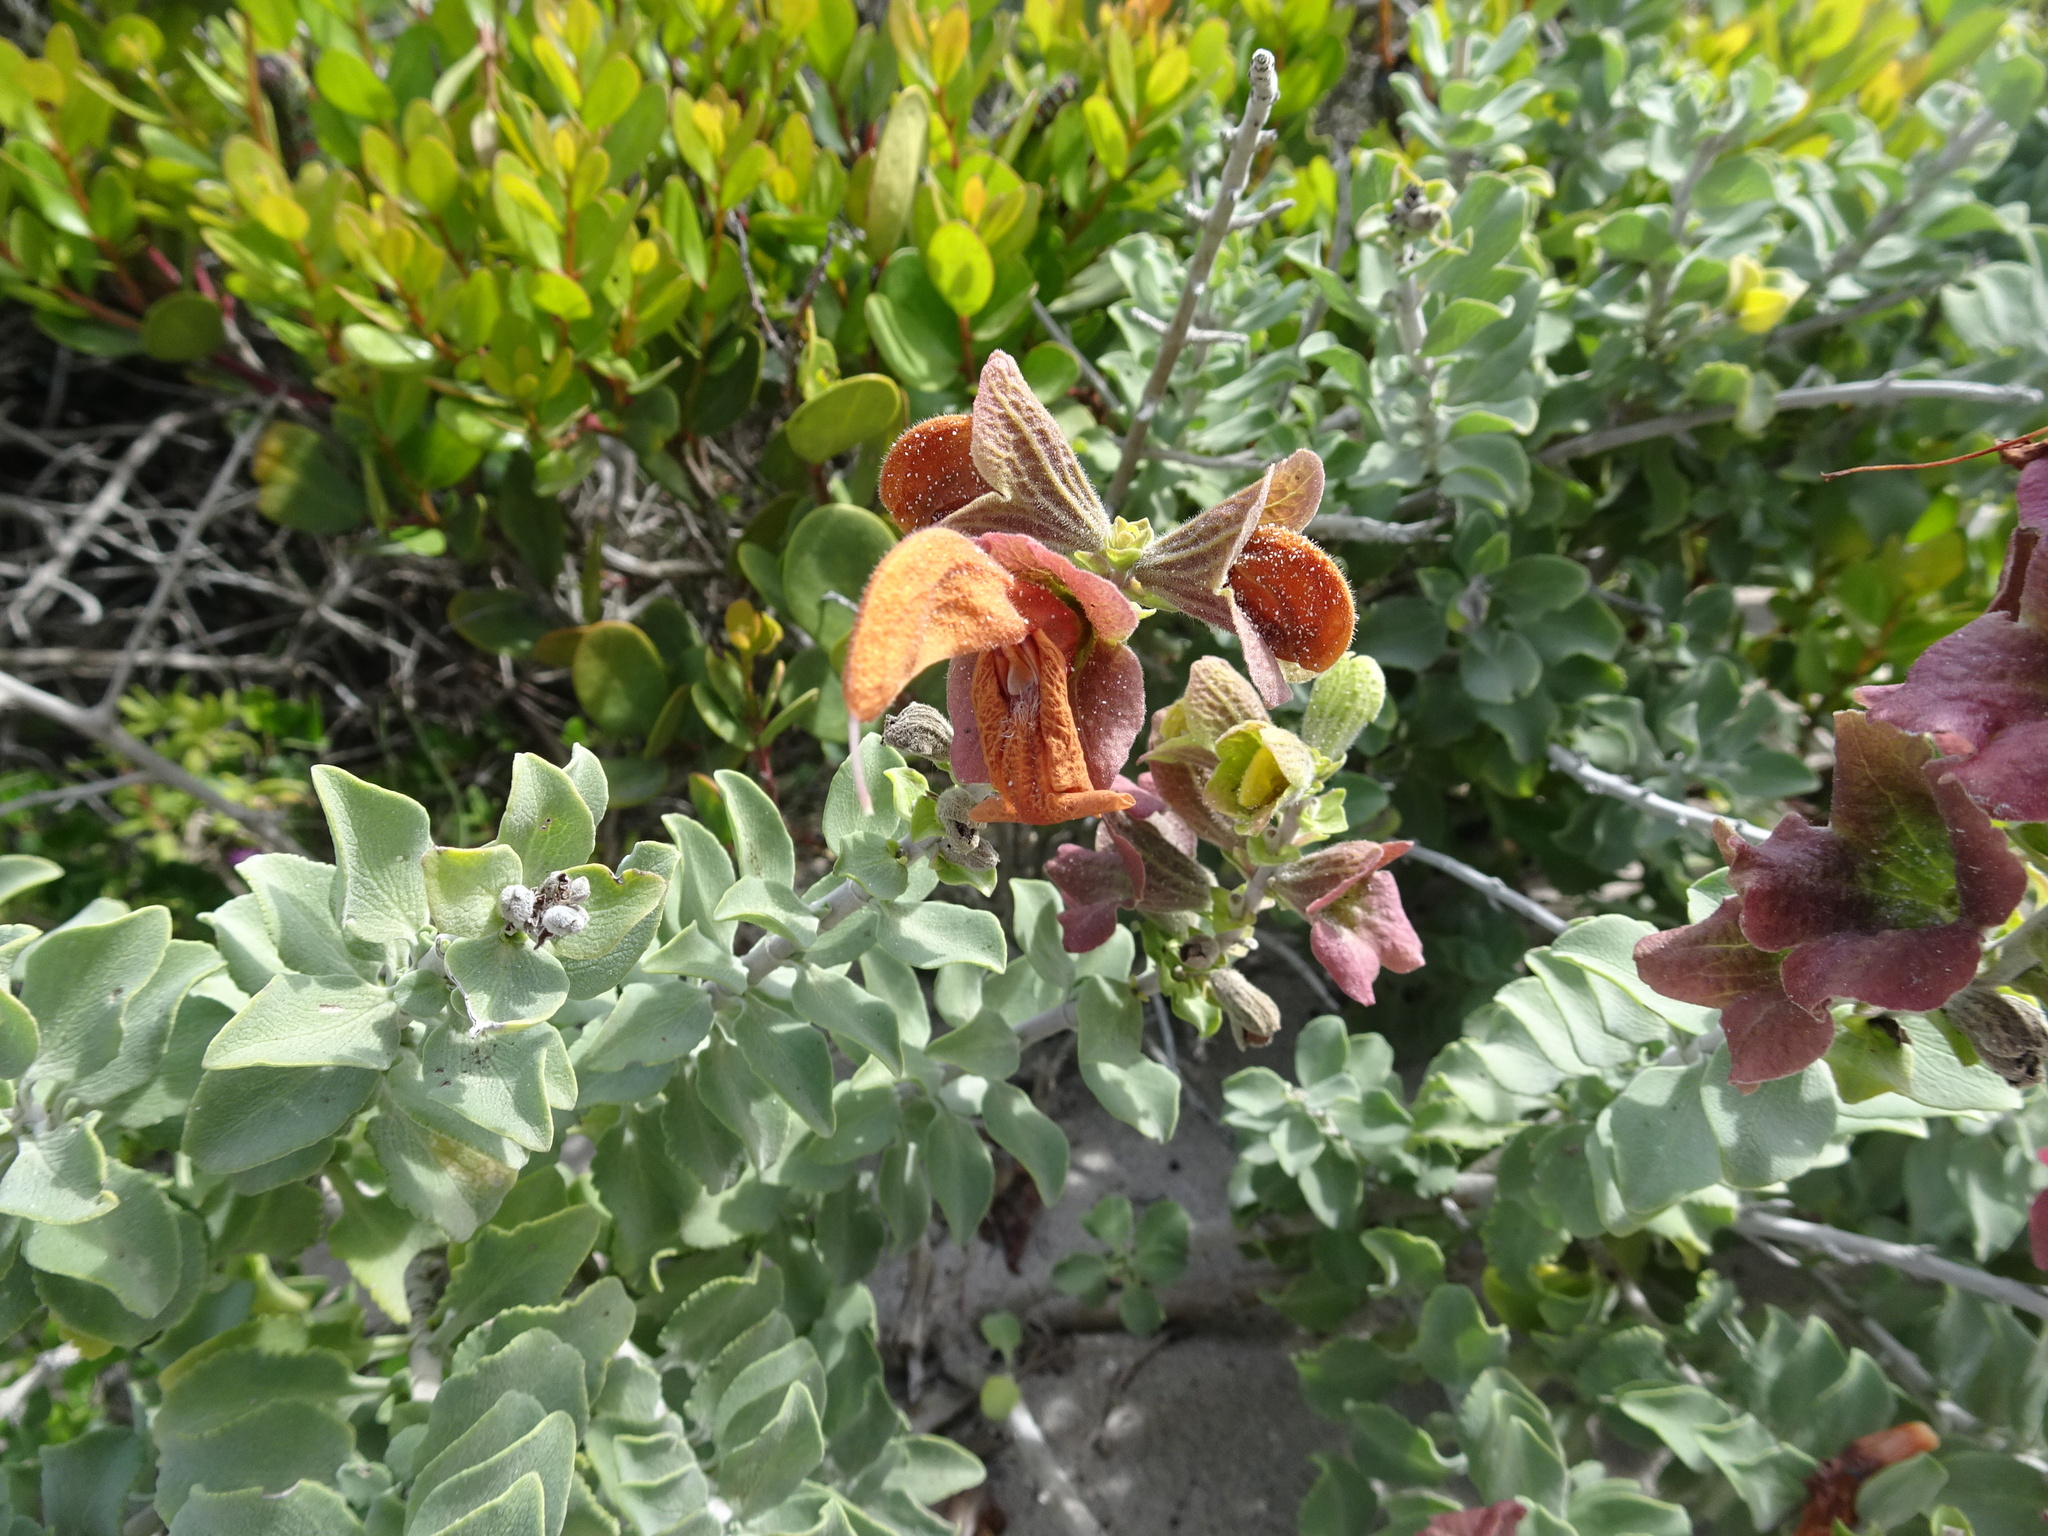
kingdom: Plantae
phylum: Tracheophyta
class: Magnoliopsida
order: Lamiales
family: Lamiaceae
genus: Salvia
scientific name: Salvia aurea
